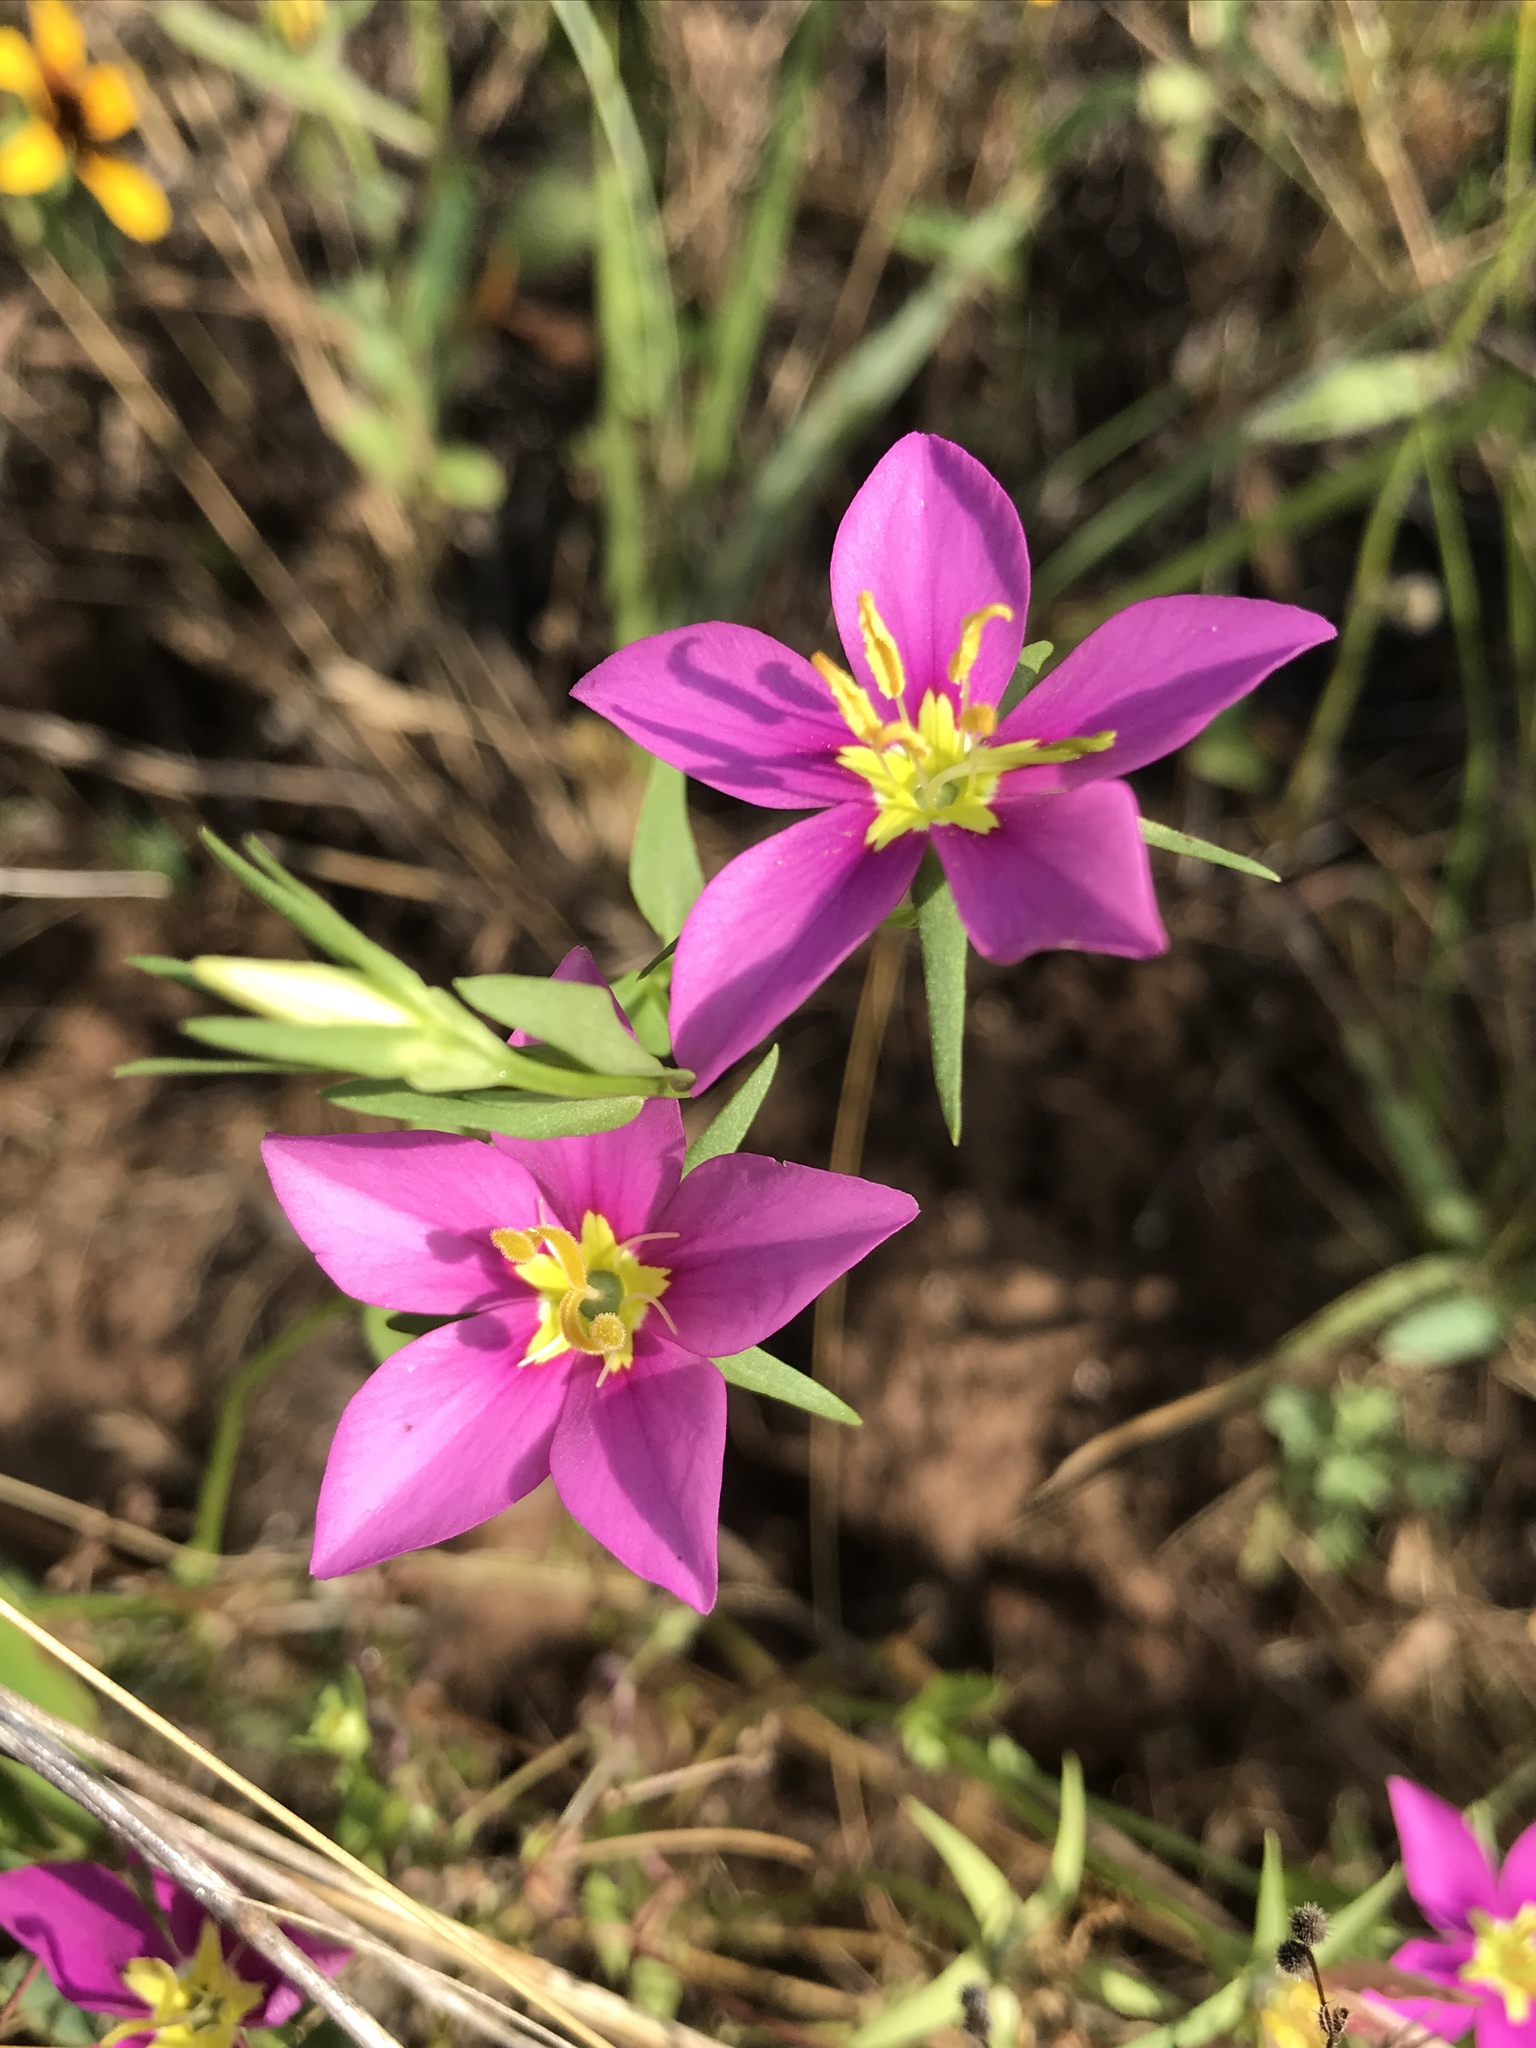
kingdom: Plantae
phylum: Tracheophyta
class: Magnoliopsida
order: Gentianales
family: Gentianaceae
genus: Sabatia
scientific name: Sabatia campestris
